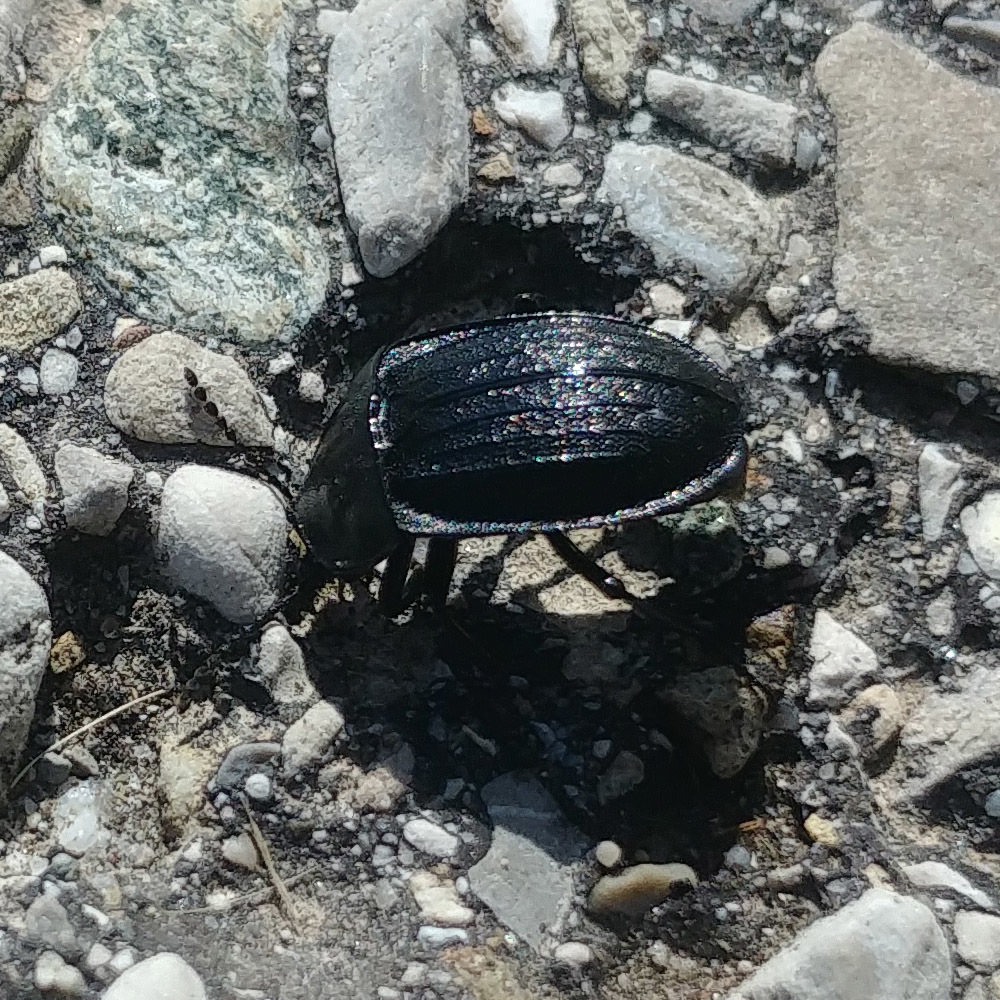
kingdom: Animalia
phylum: Arthropoda
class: Insecta
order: Coleoptera
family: Staphylinidae
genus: Silpha
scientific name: Silpha atrata
